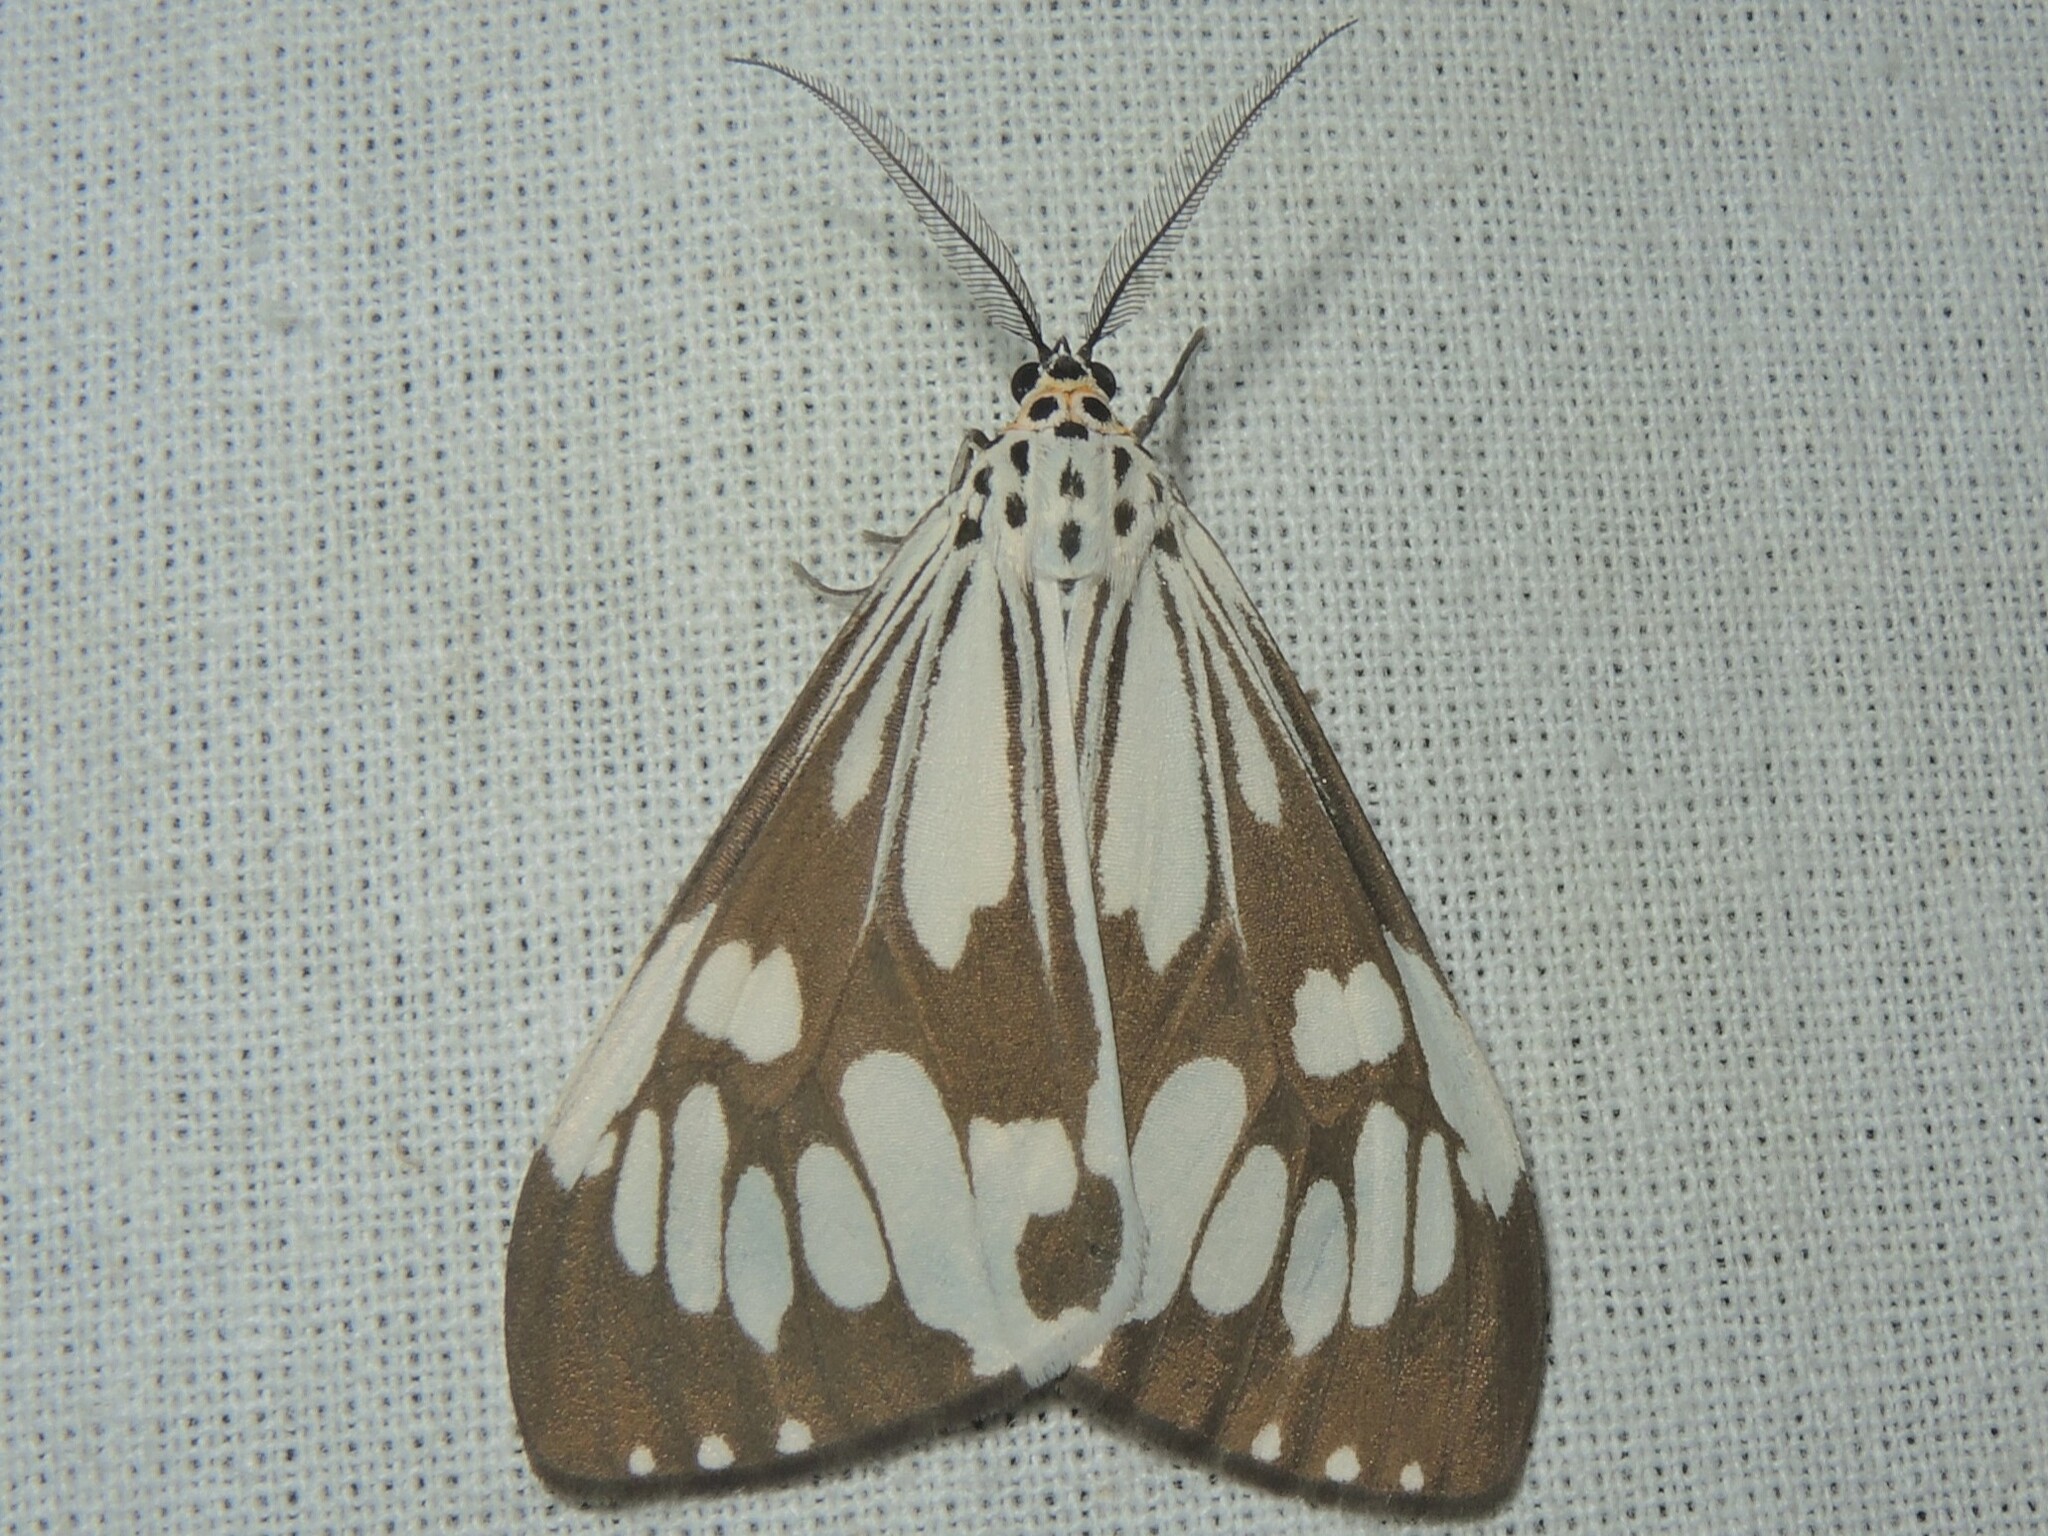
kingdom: Animalia
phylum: Arthropoda
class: Insecta
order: Lepidoptera
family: Erebidae
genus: Nyctemera
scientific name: Nyctemera coleta
